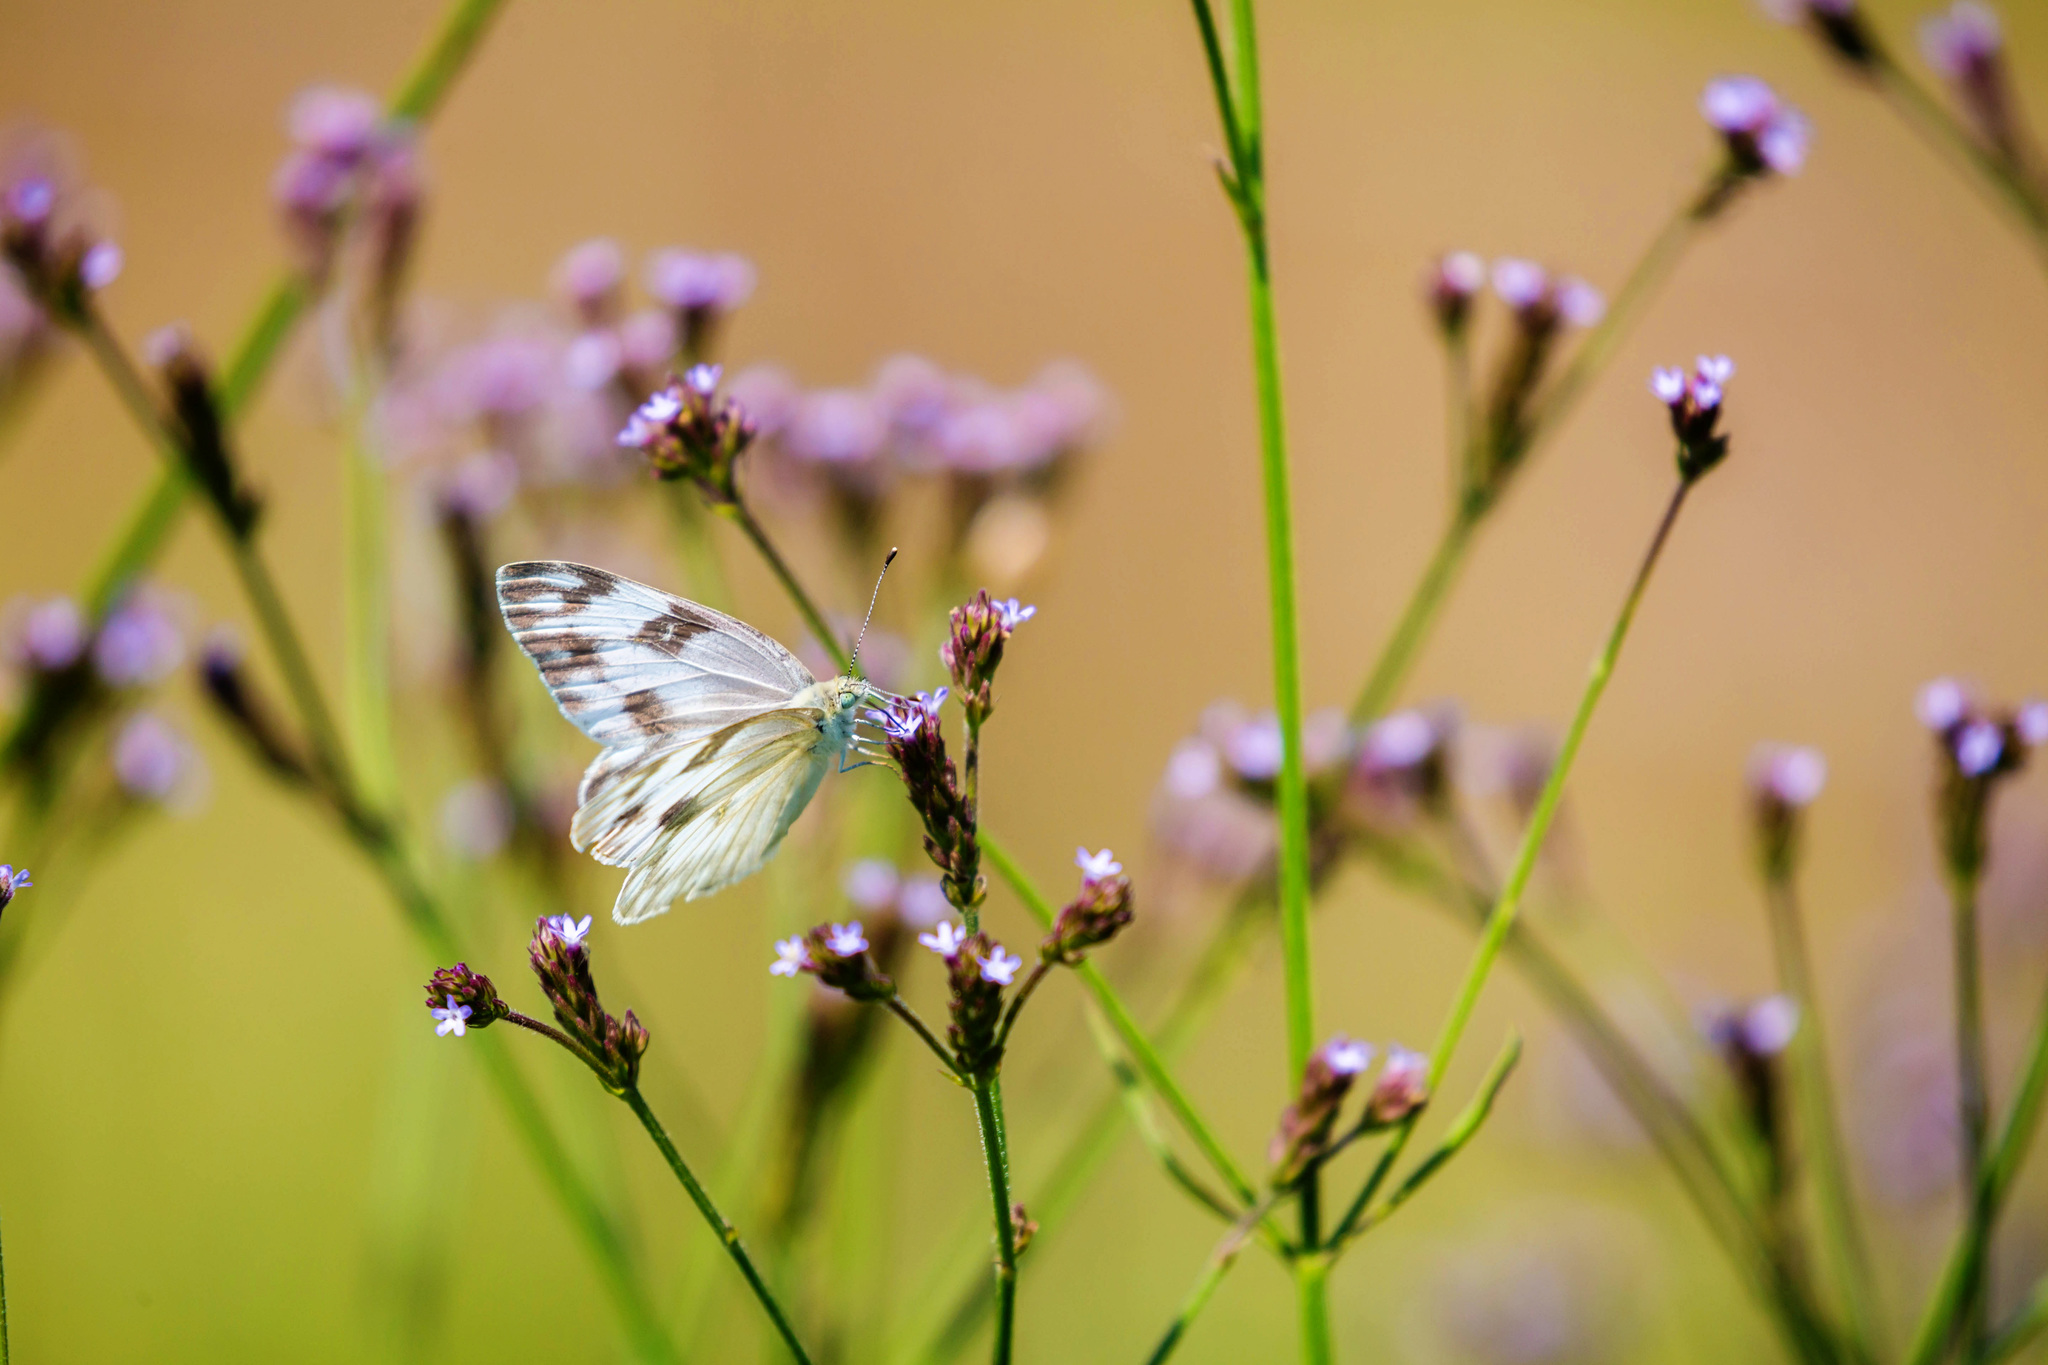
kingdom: Animalia
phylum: Arthropoda
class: Insecta
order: Lepidoptera
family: Pieridae
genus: Pontia
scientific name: Pontia protodice
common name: Checkered white
